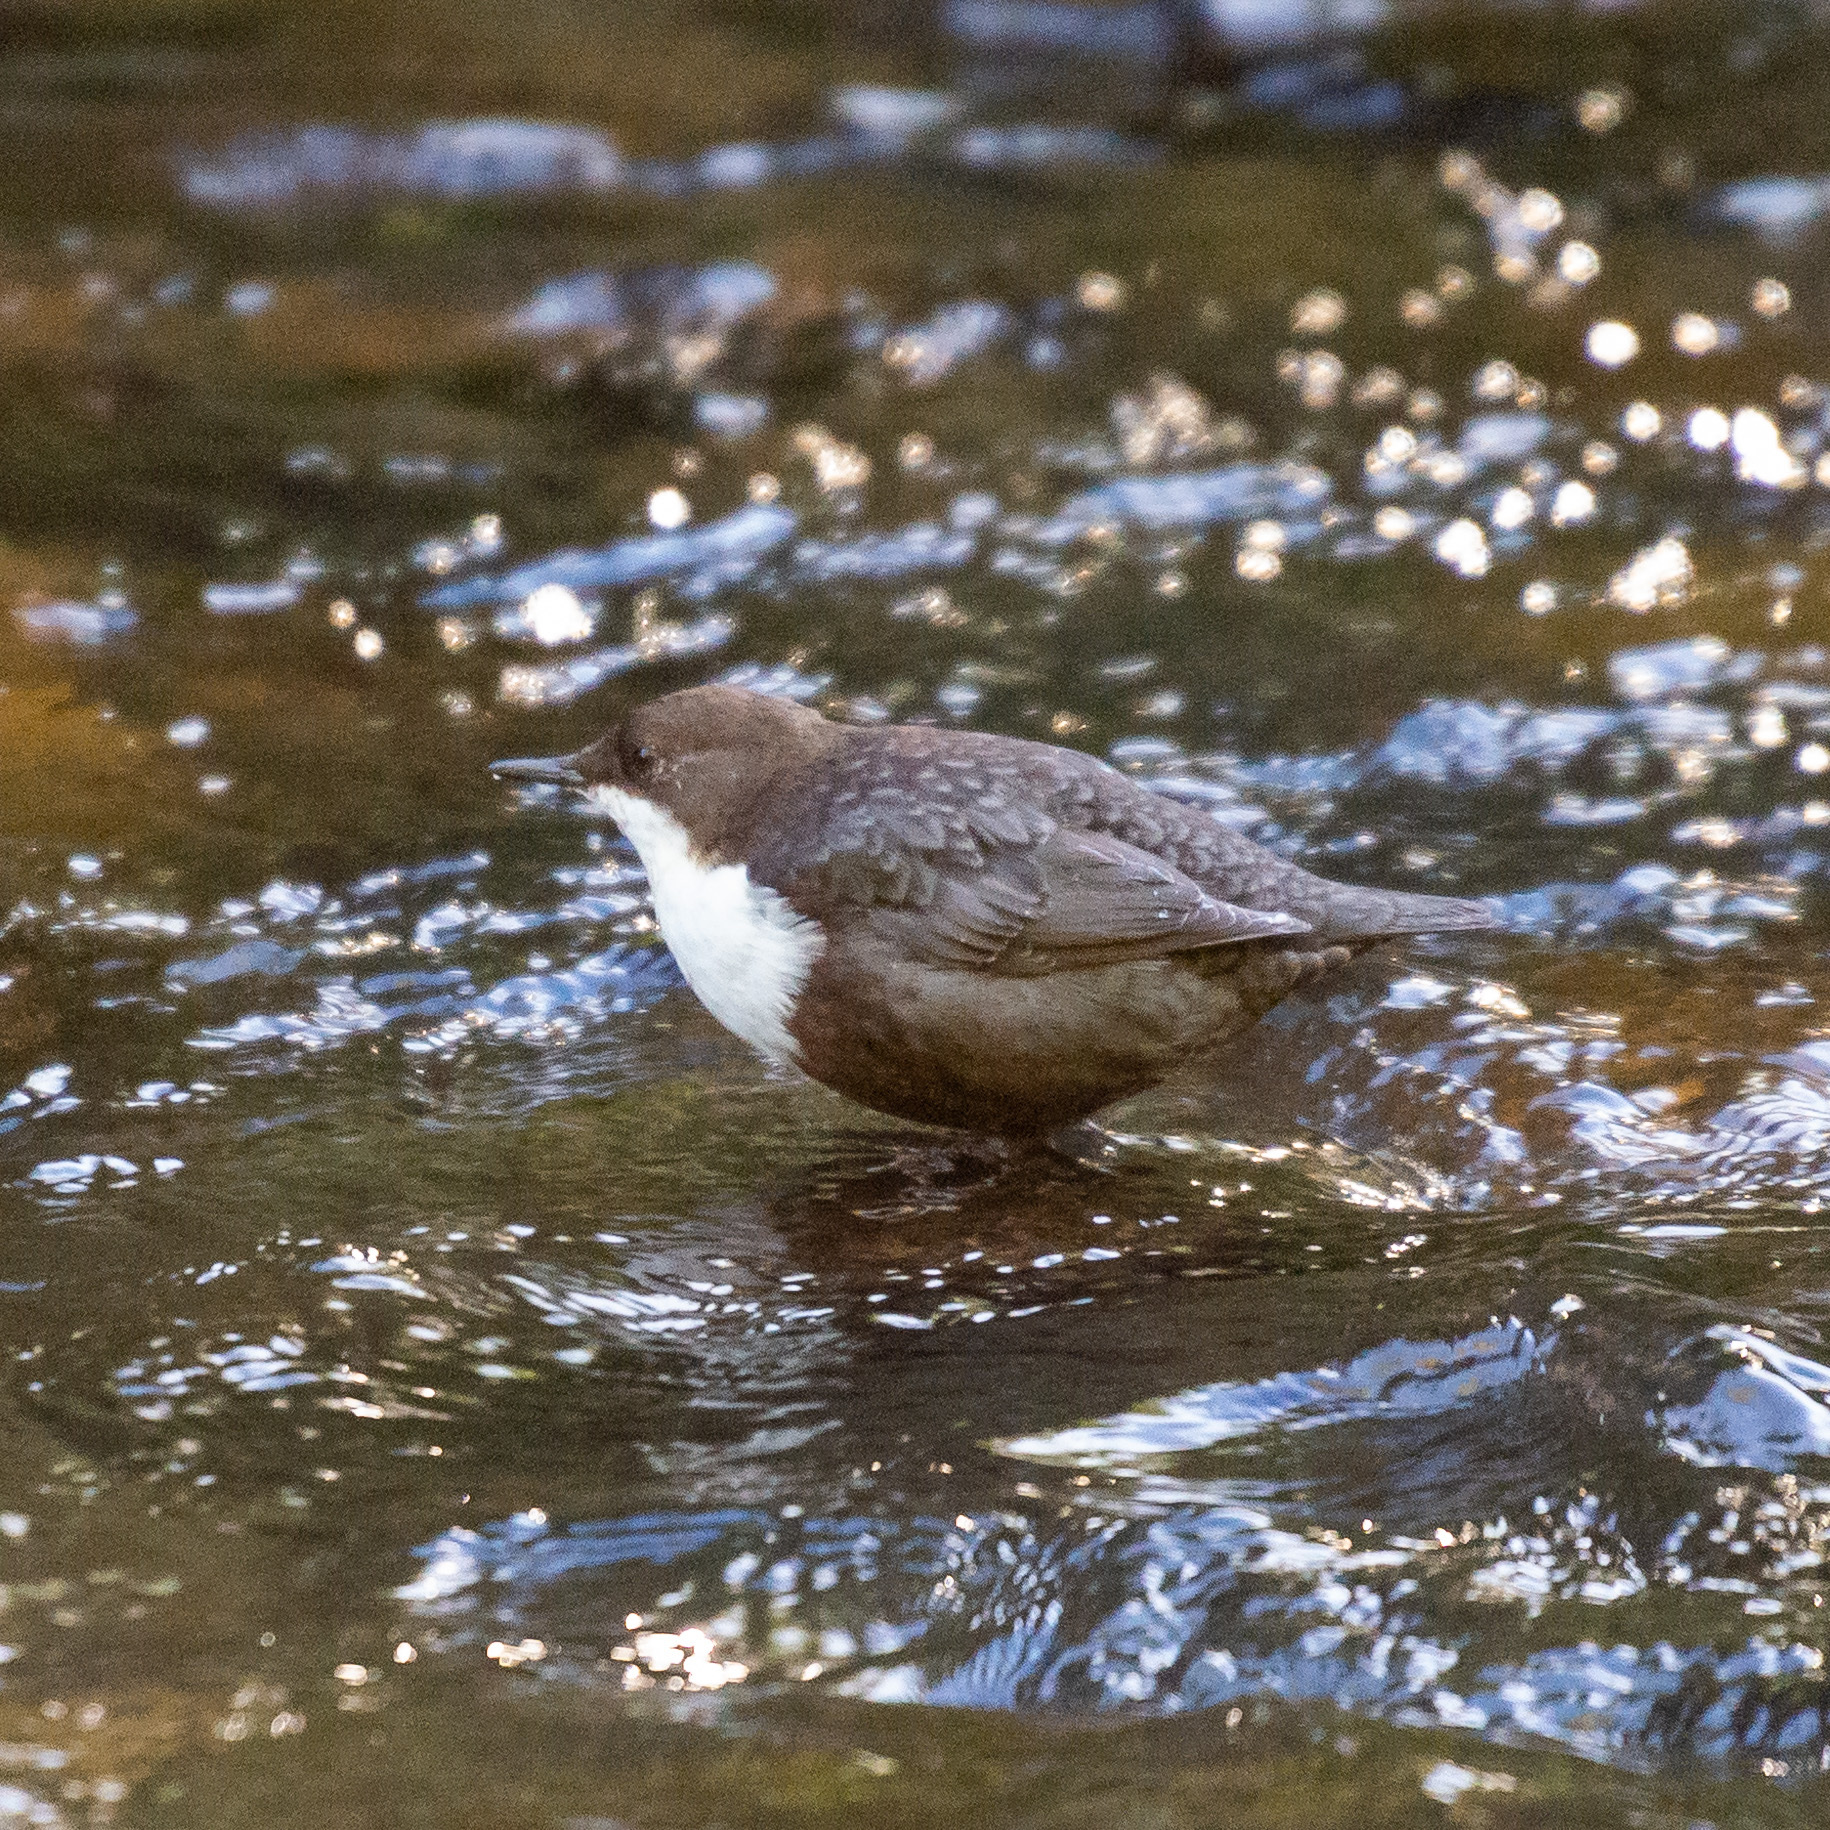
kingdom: Animalia
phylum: Chordata
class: Aves
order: Passeriformes
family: Cinclidae
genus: Cinclus
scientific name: Cinclus cinclus
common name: White-throated dipper
